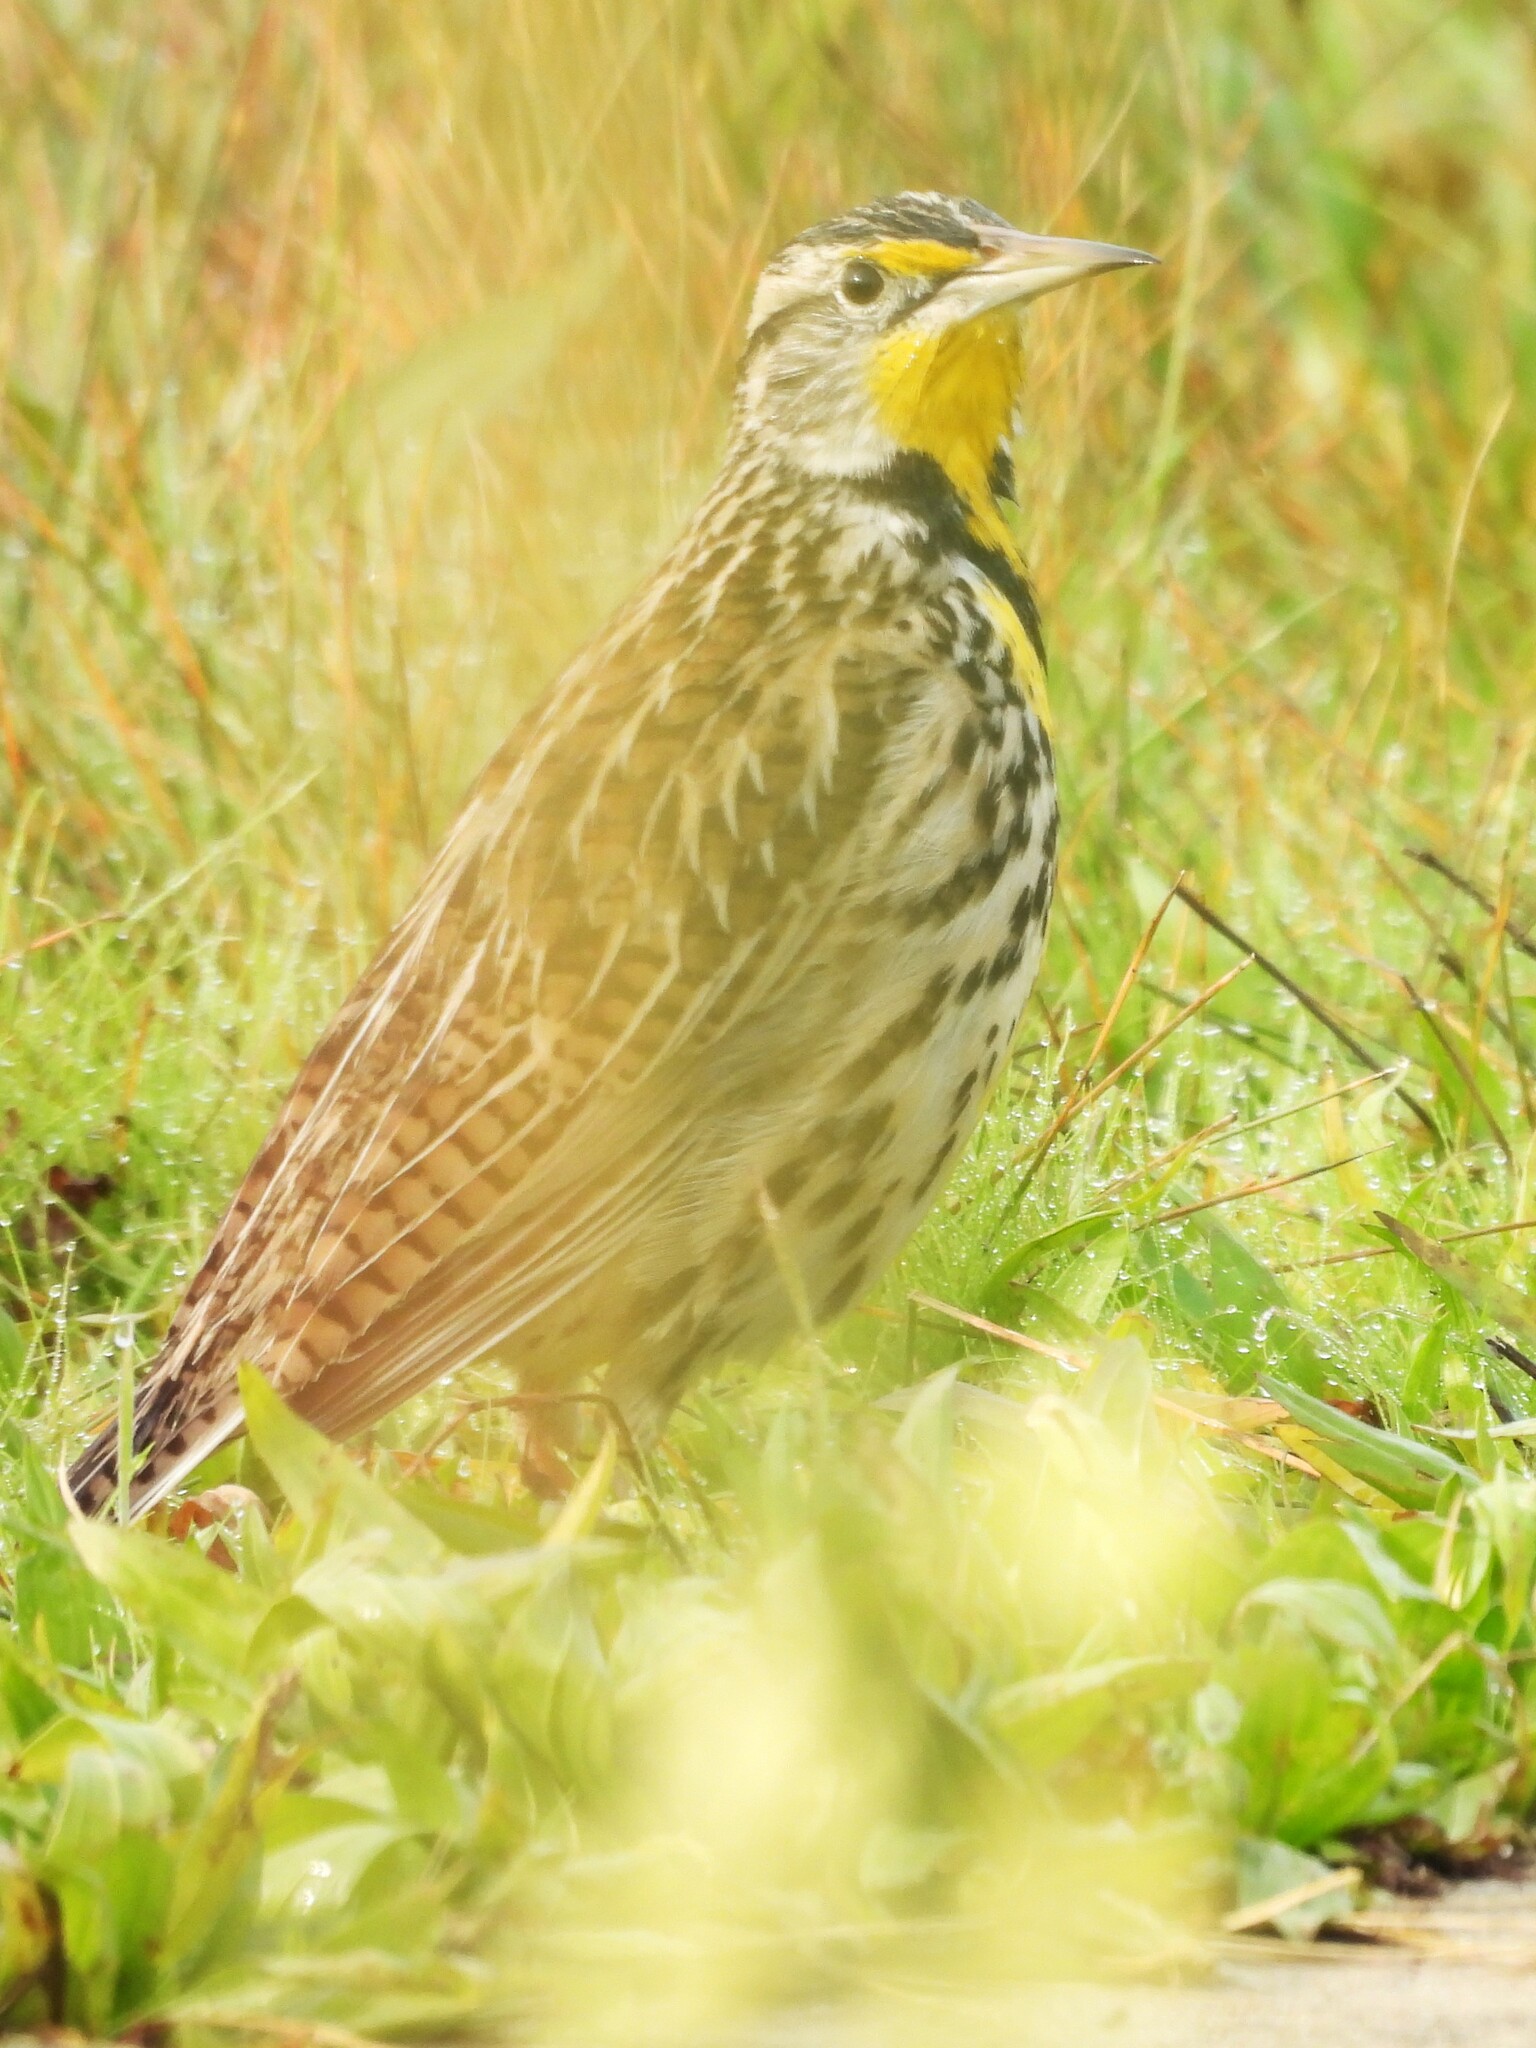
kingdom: Animalia
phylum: Chordata
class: Aves
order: Passeriformes
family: Icteridae
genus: Sturnella
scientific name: Sturnella neglecta
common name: Western meadowlark
